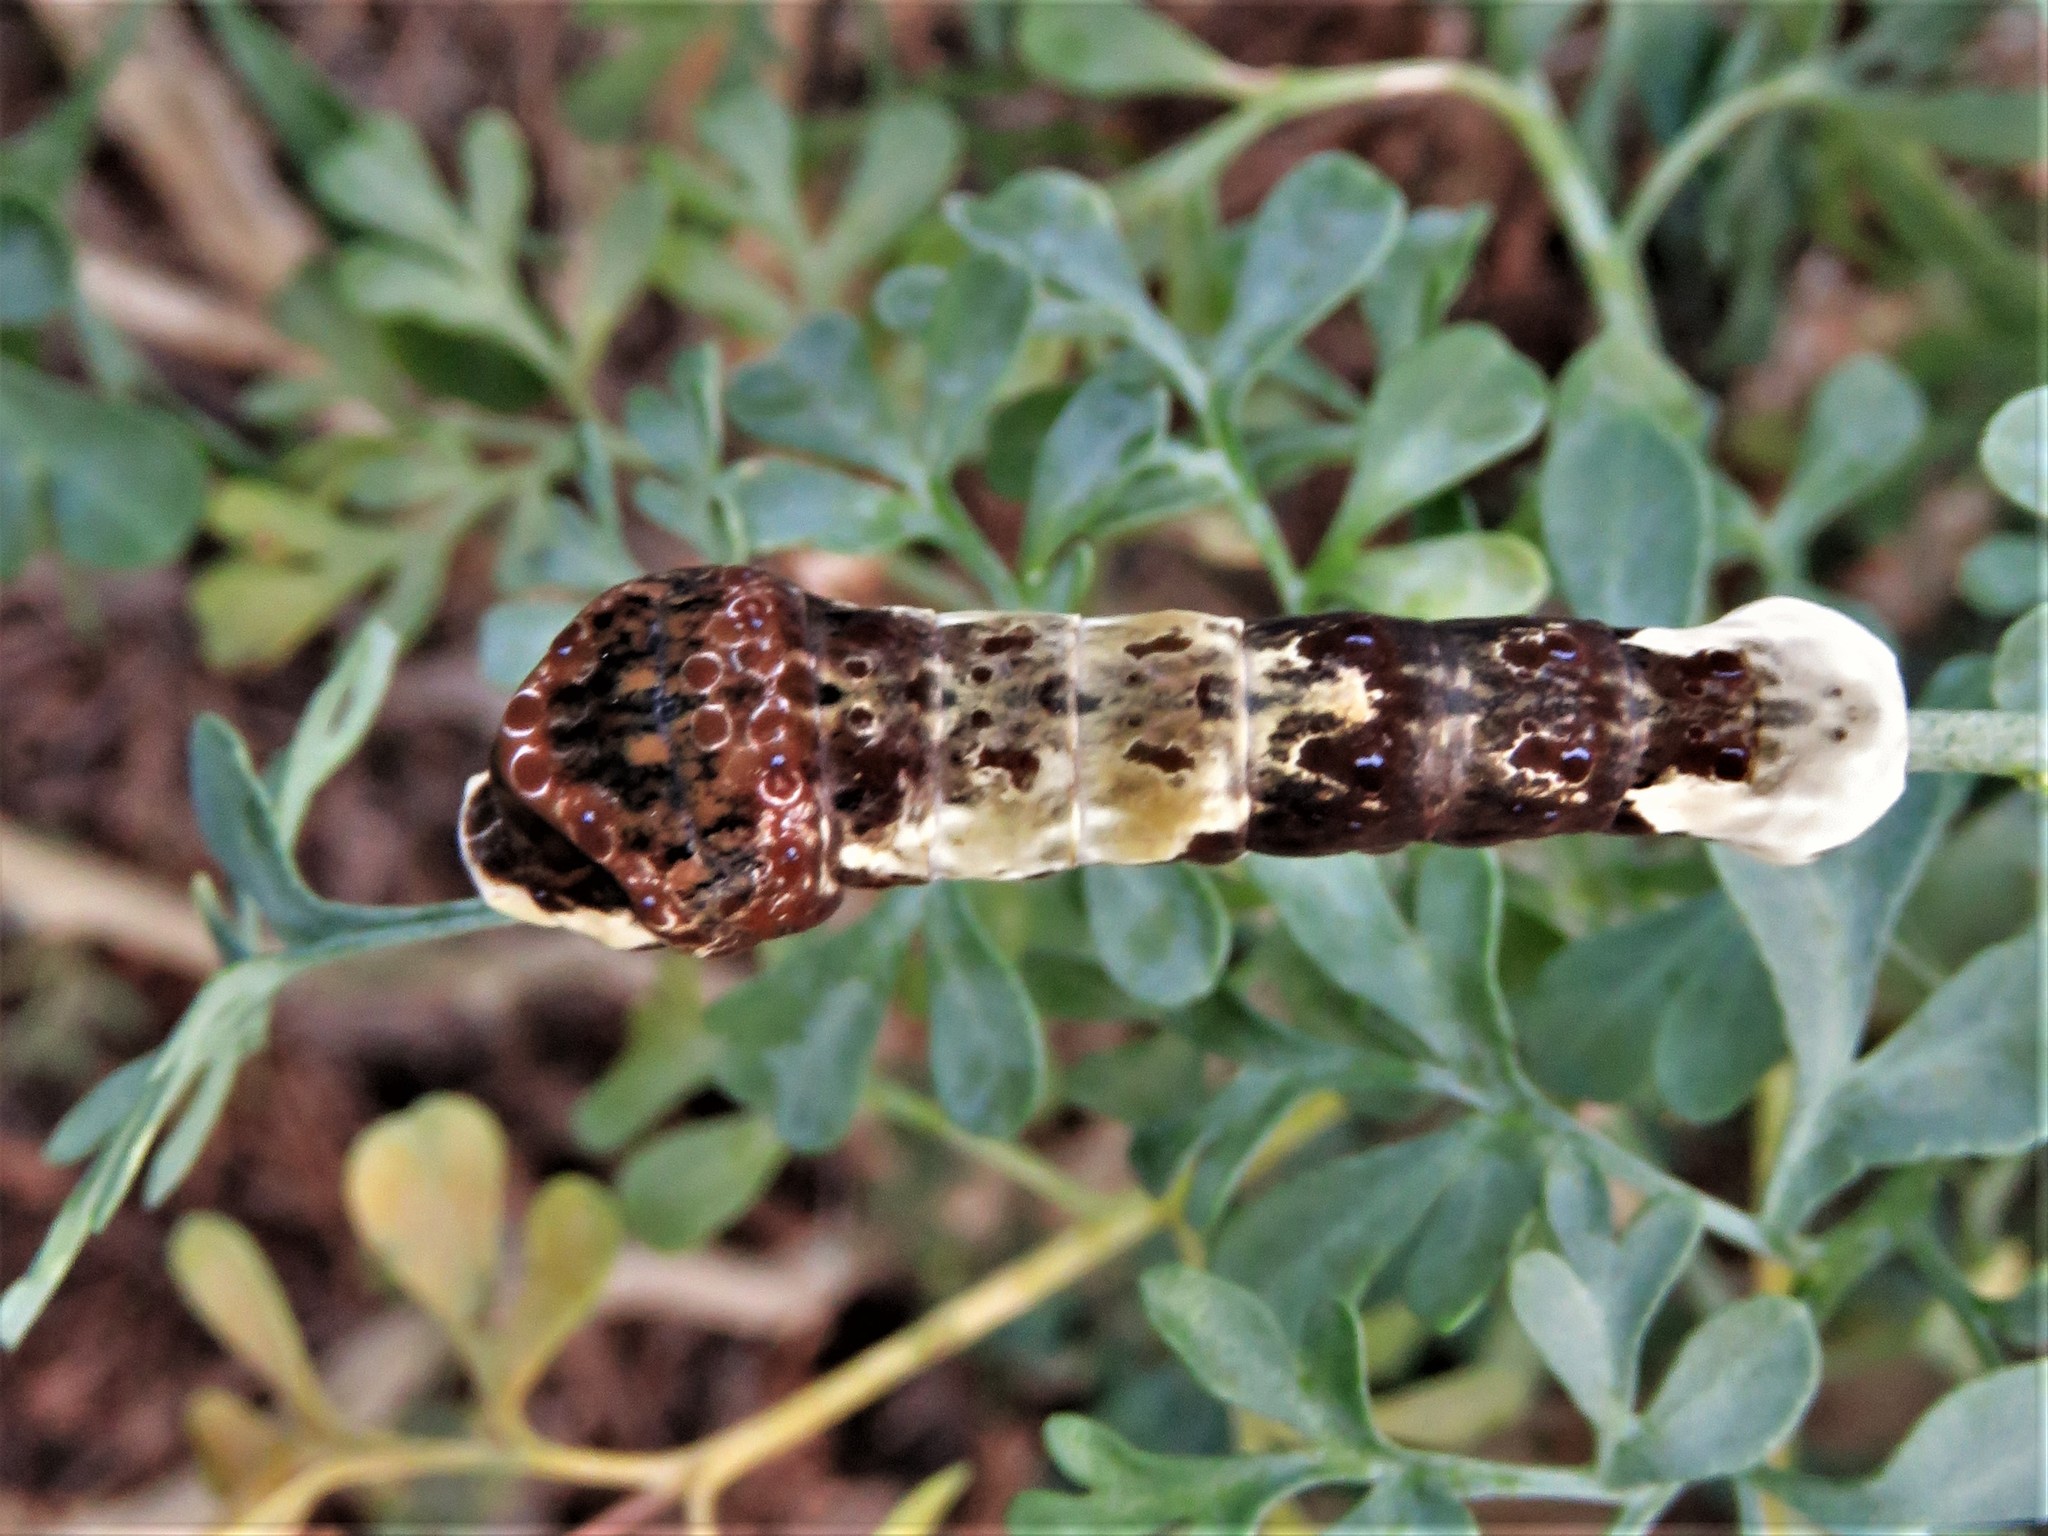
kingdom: Animalia
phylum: Arthropoda
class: Insecta
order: Lepidoptera
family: Papilionidae
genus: Papilio
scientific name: Papilio cresphontes
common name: Giant swallowtail
